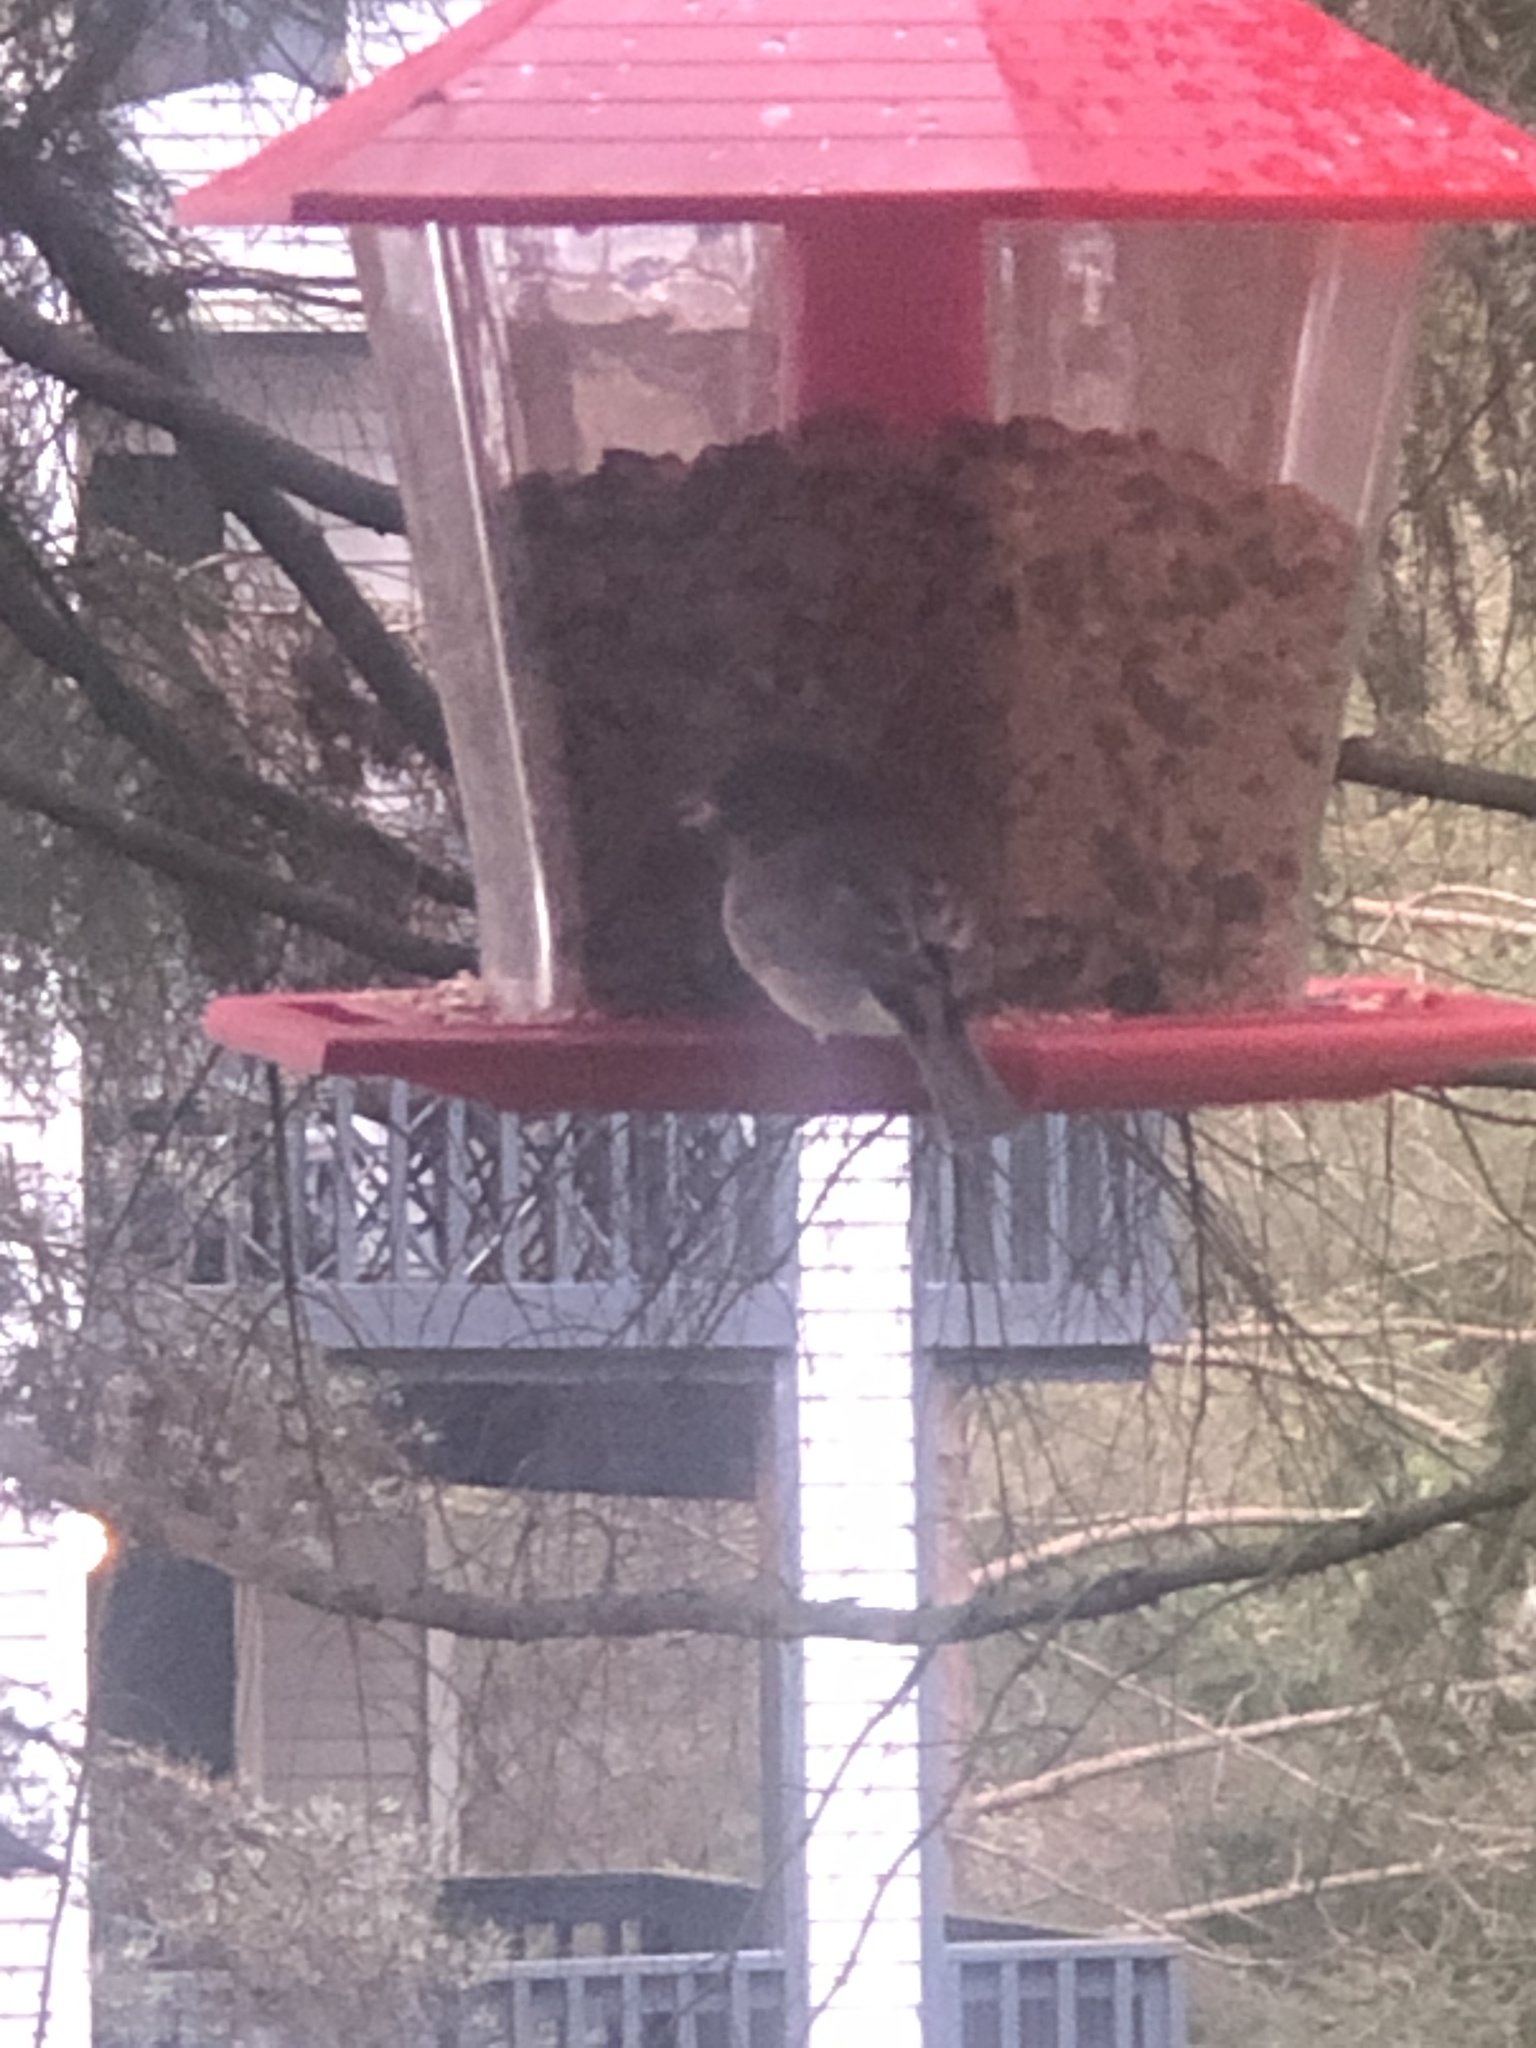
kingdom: Animalia
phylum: Chordata
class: Aves
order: Passeriformes
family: Passerellidae
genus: Junco
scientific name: Junco hyemalis
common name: Dark-eyed junco
